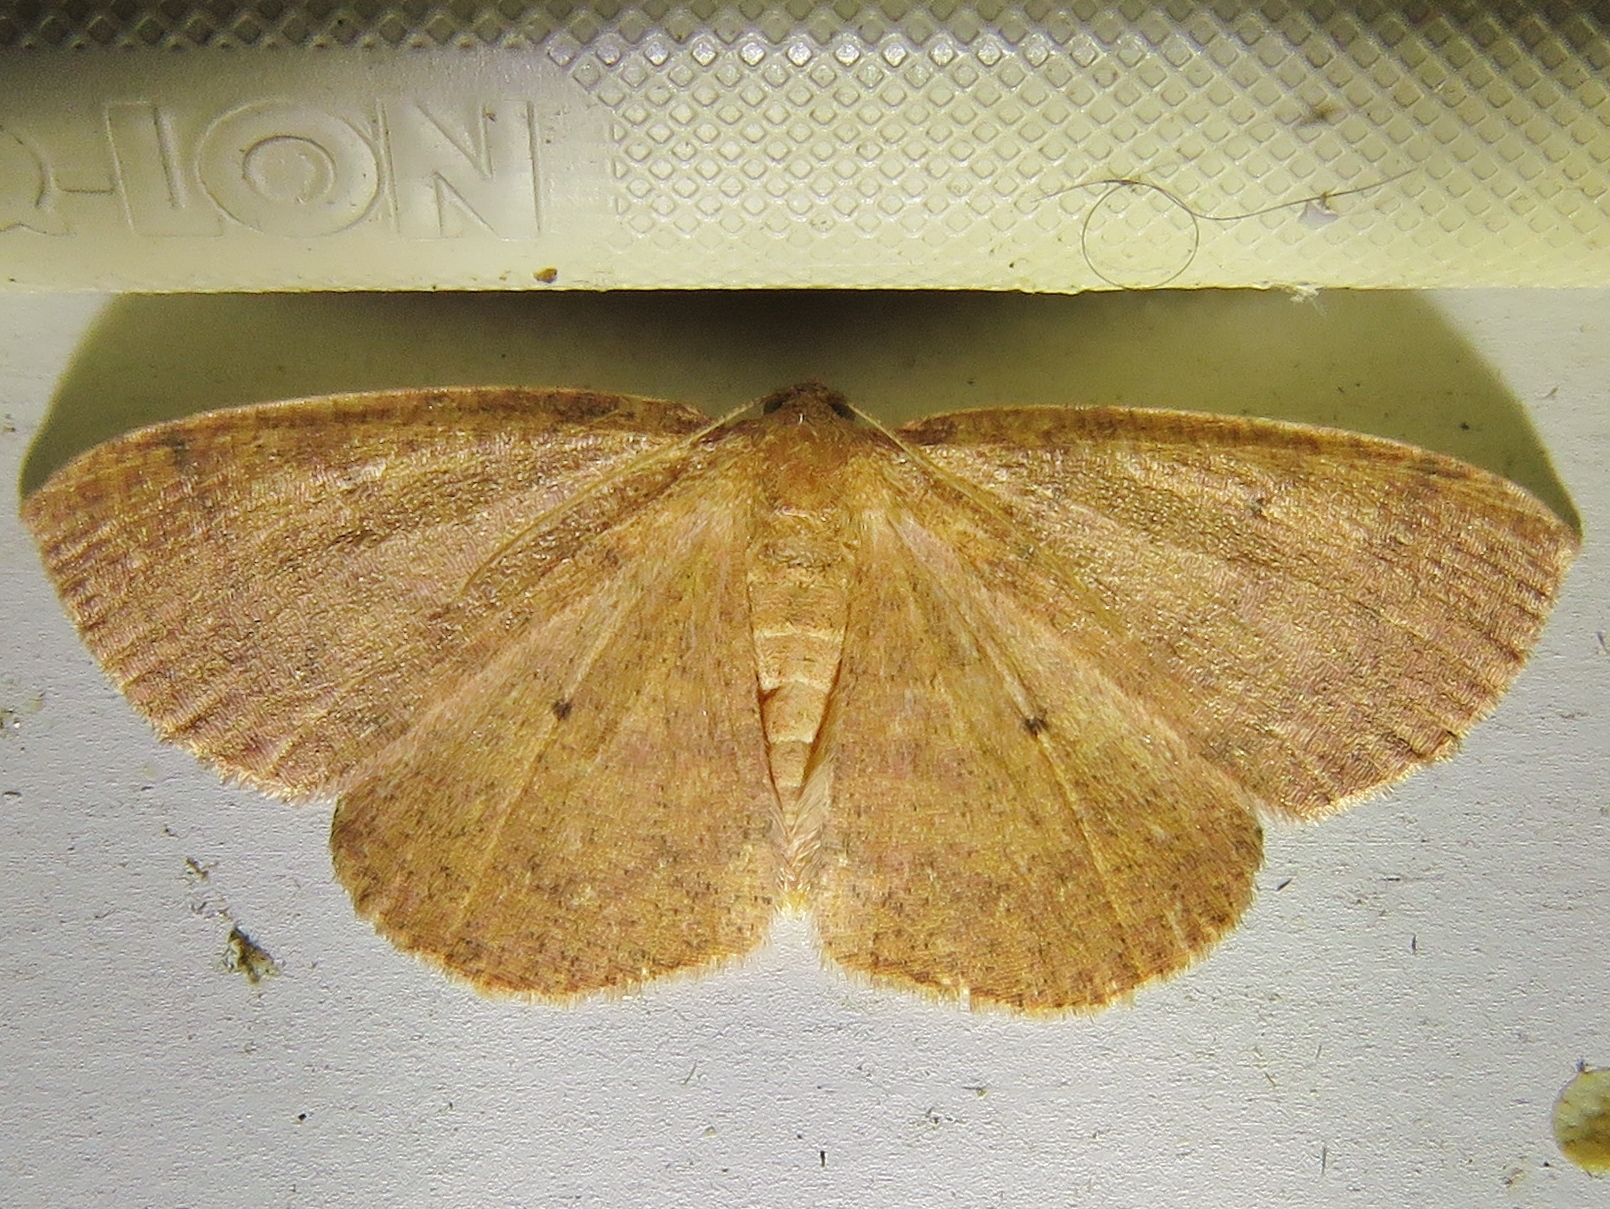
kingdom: Animalia
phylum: Arthropoda
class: Insecta
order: Lepidoptera
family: Geometridae
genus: Ilexia
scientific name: Ilexia intractata
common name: Black-dotted ruddy moth
